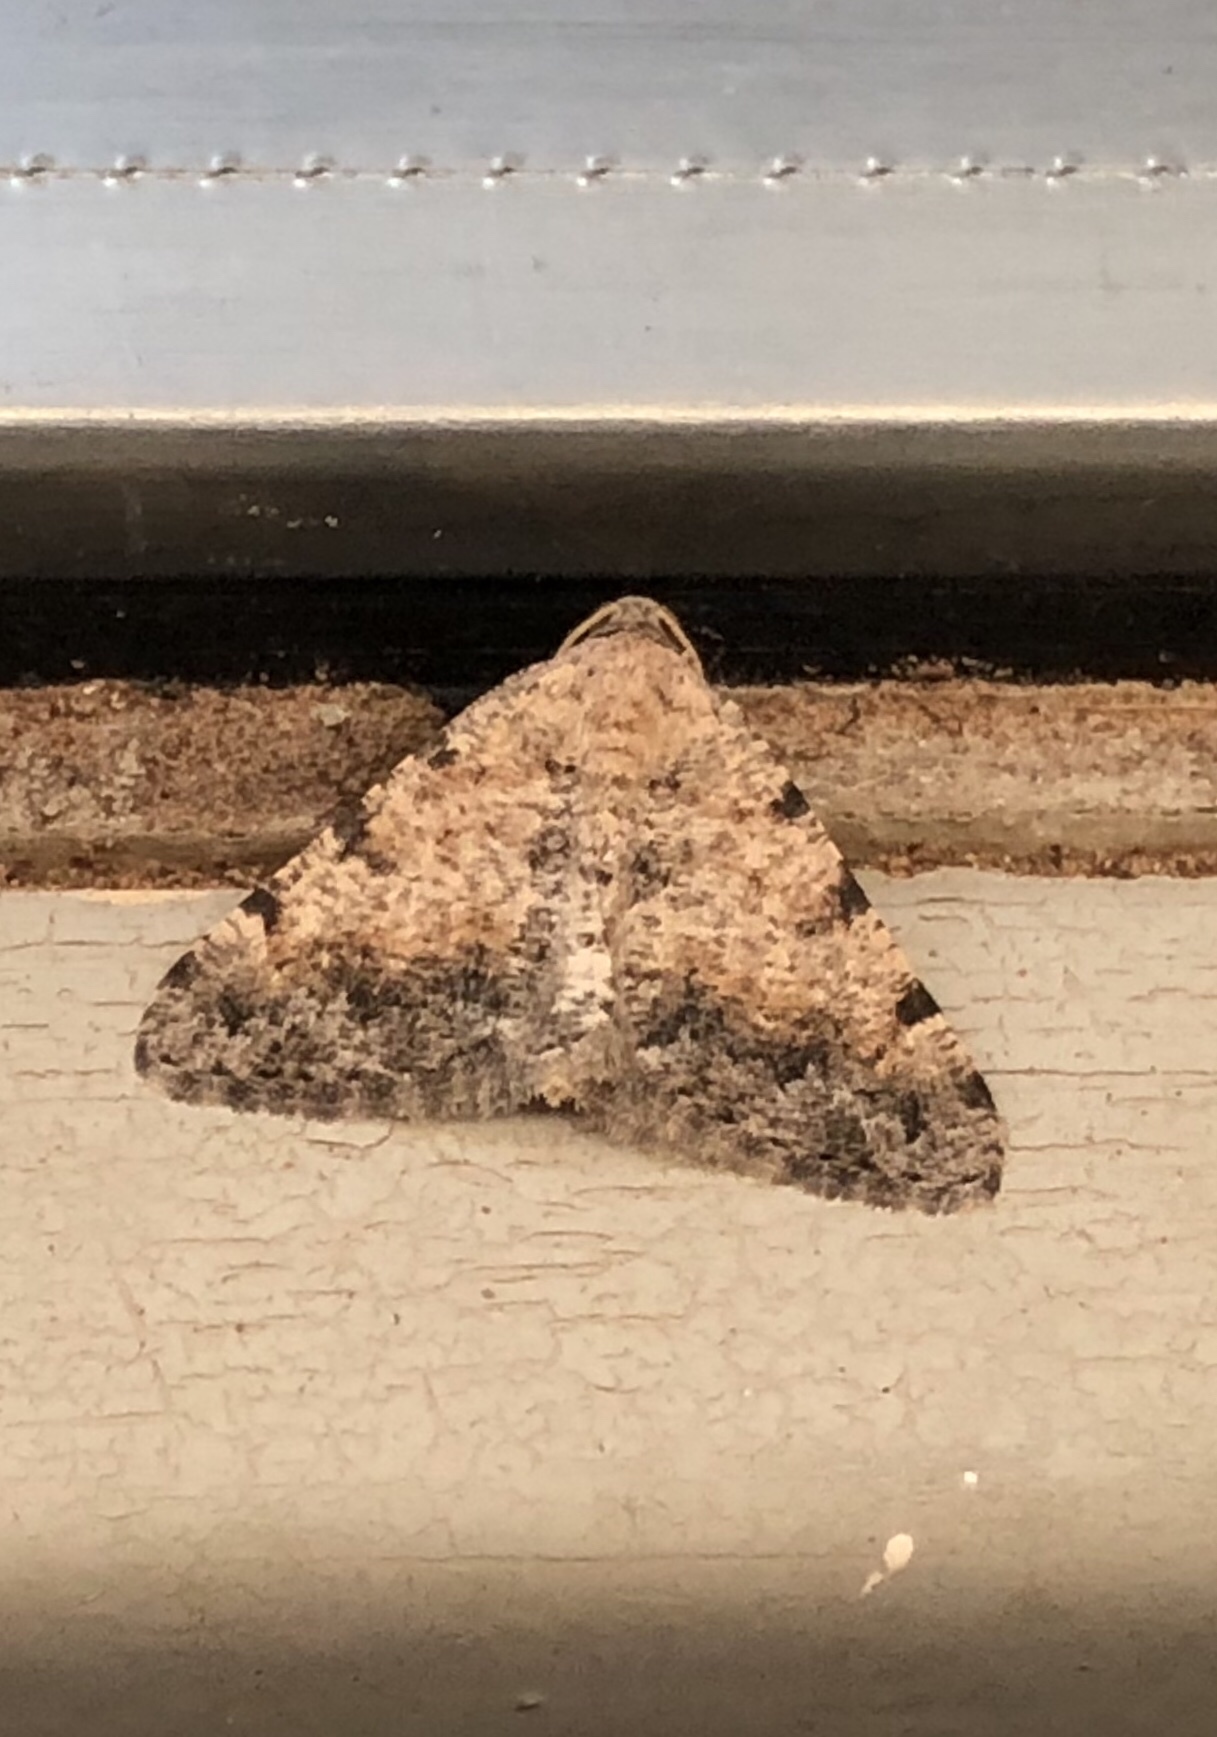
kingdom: Animalia
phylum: Arthropoda
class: Insecta
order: Lepidoptera
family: Geometridae
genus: Digrammia
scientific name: Digrammia colorata
